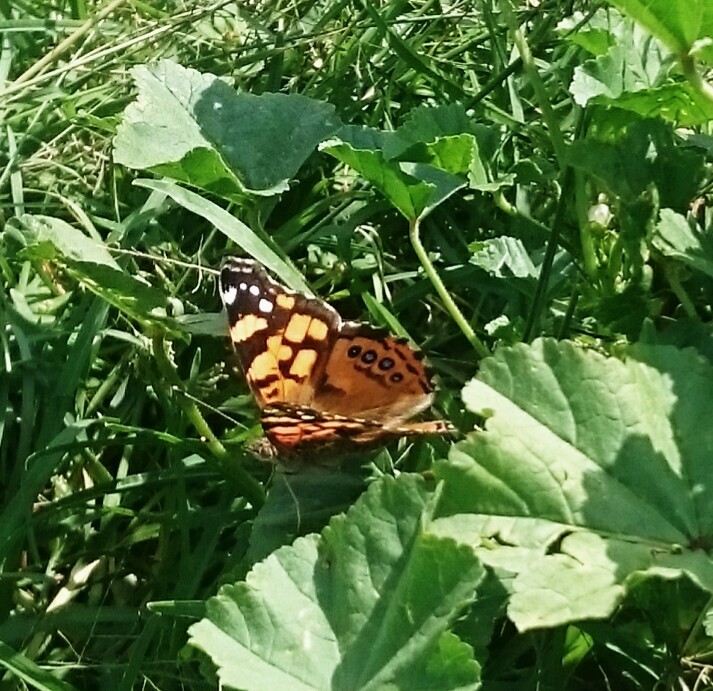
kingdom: Animalia
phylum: Arthropoda
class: Insecta
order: Lepidoptera
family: Nymphalidae
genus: Vanessa
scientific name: Vanessa annabella
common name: West coast lady
